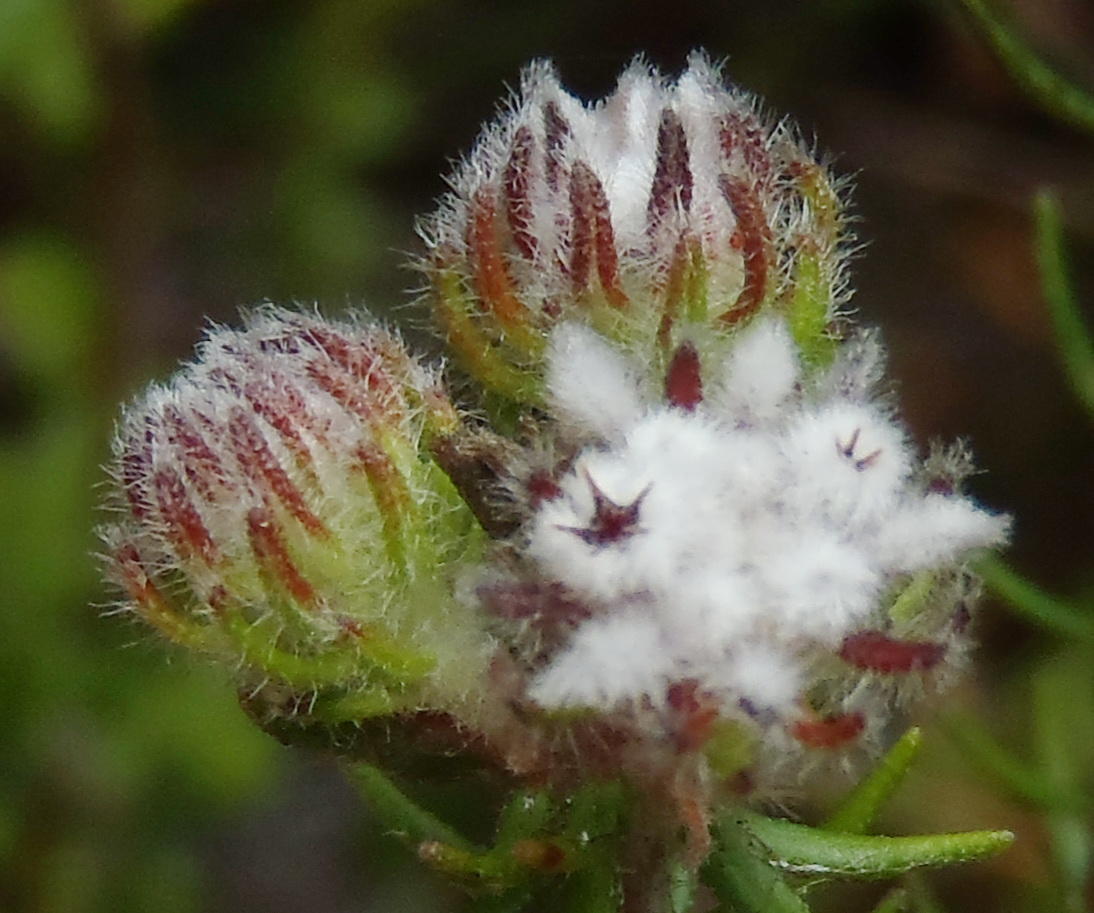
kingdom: Plantae
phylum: Tracheophyta
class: Magnoliopsida
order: Rosales
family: Rhamnaceae
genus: Phylica
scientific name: Phylica keetii
